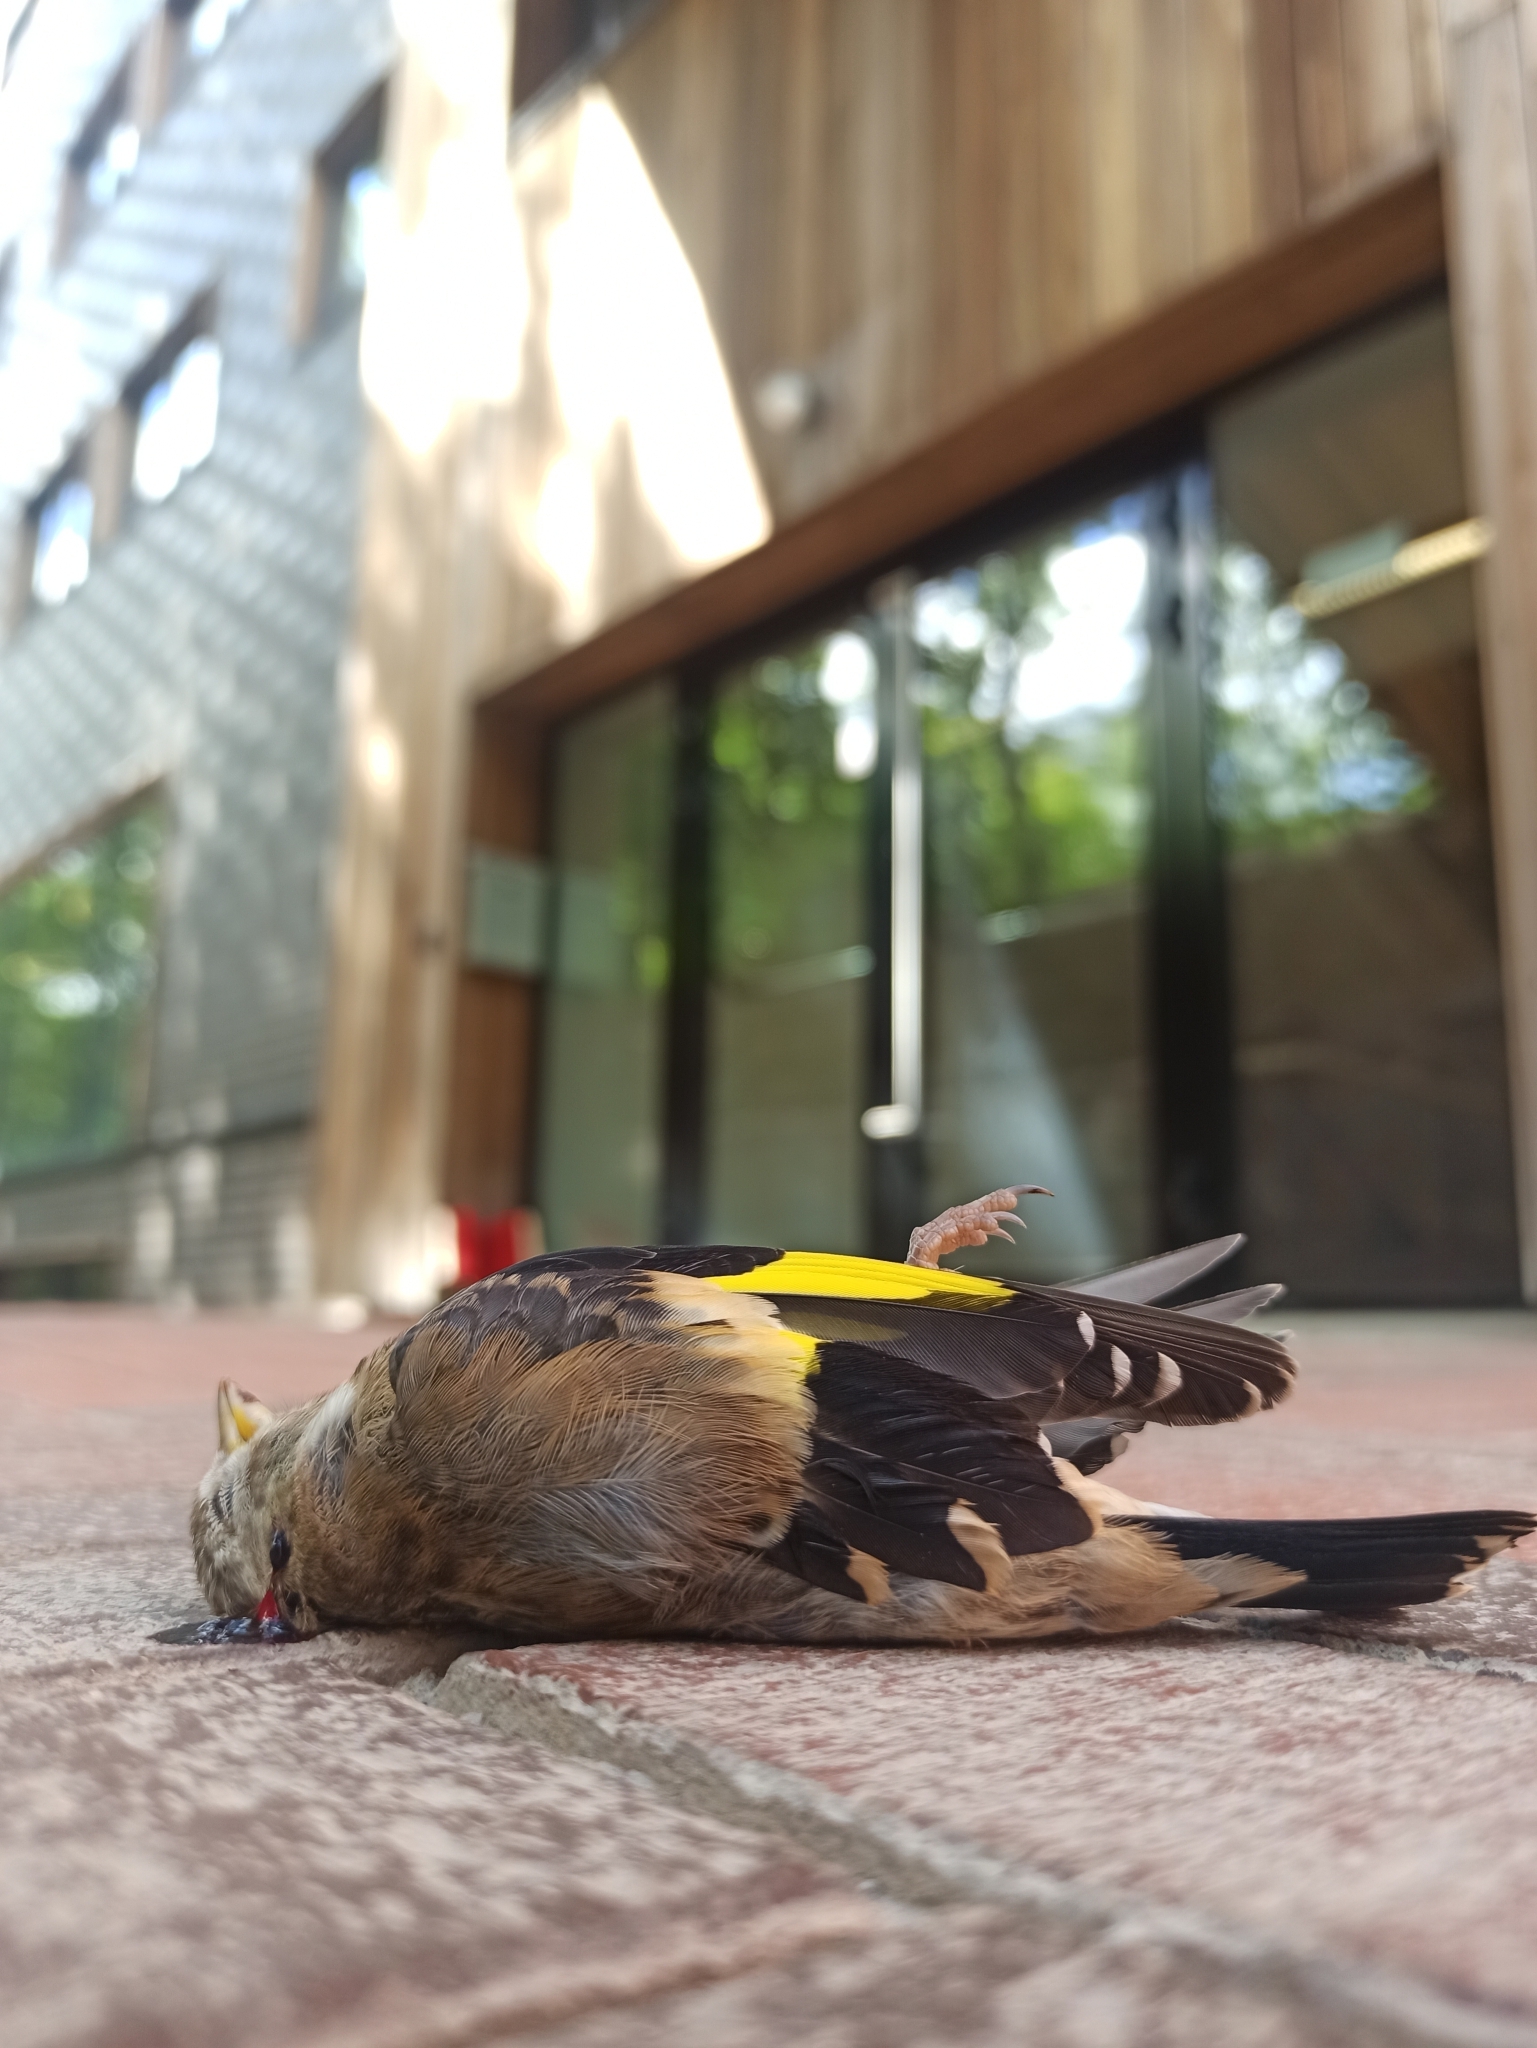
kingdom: Animalia
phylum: Chordata
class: Aves
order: Passeriformes
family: Fringillidae
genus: Carduelis
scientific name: Carduelis carduelis
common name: European goldfinch
